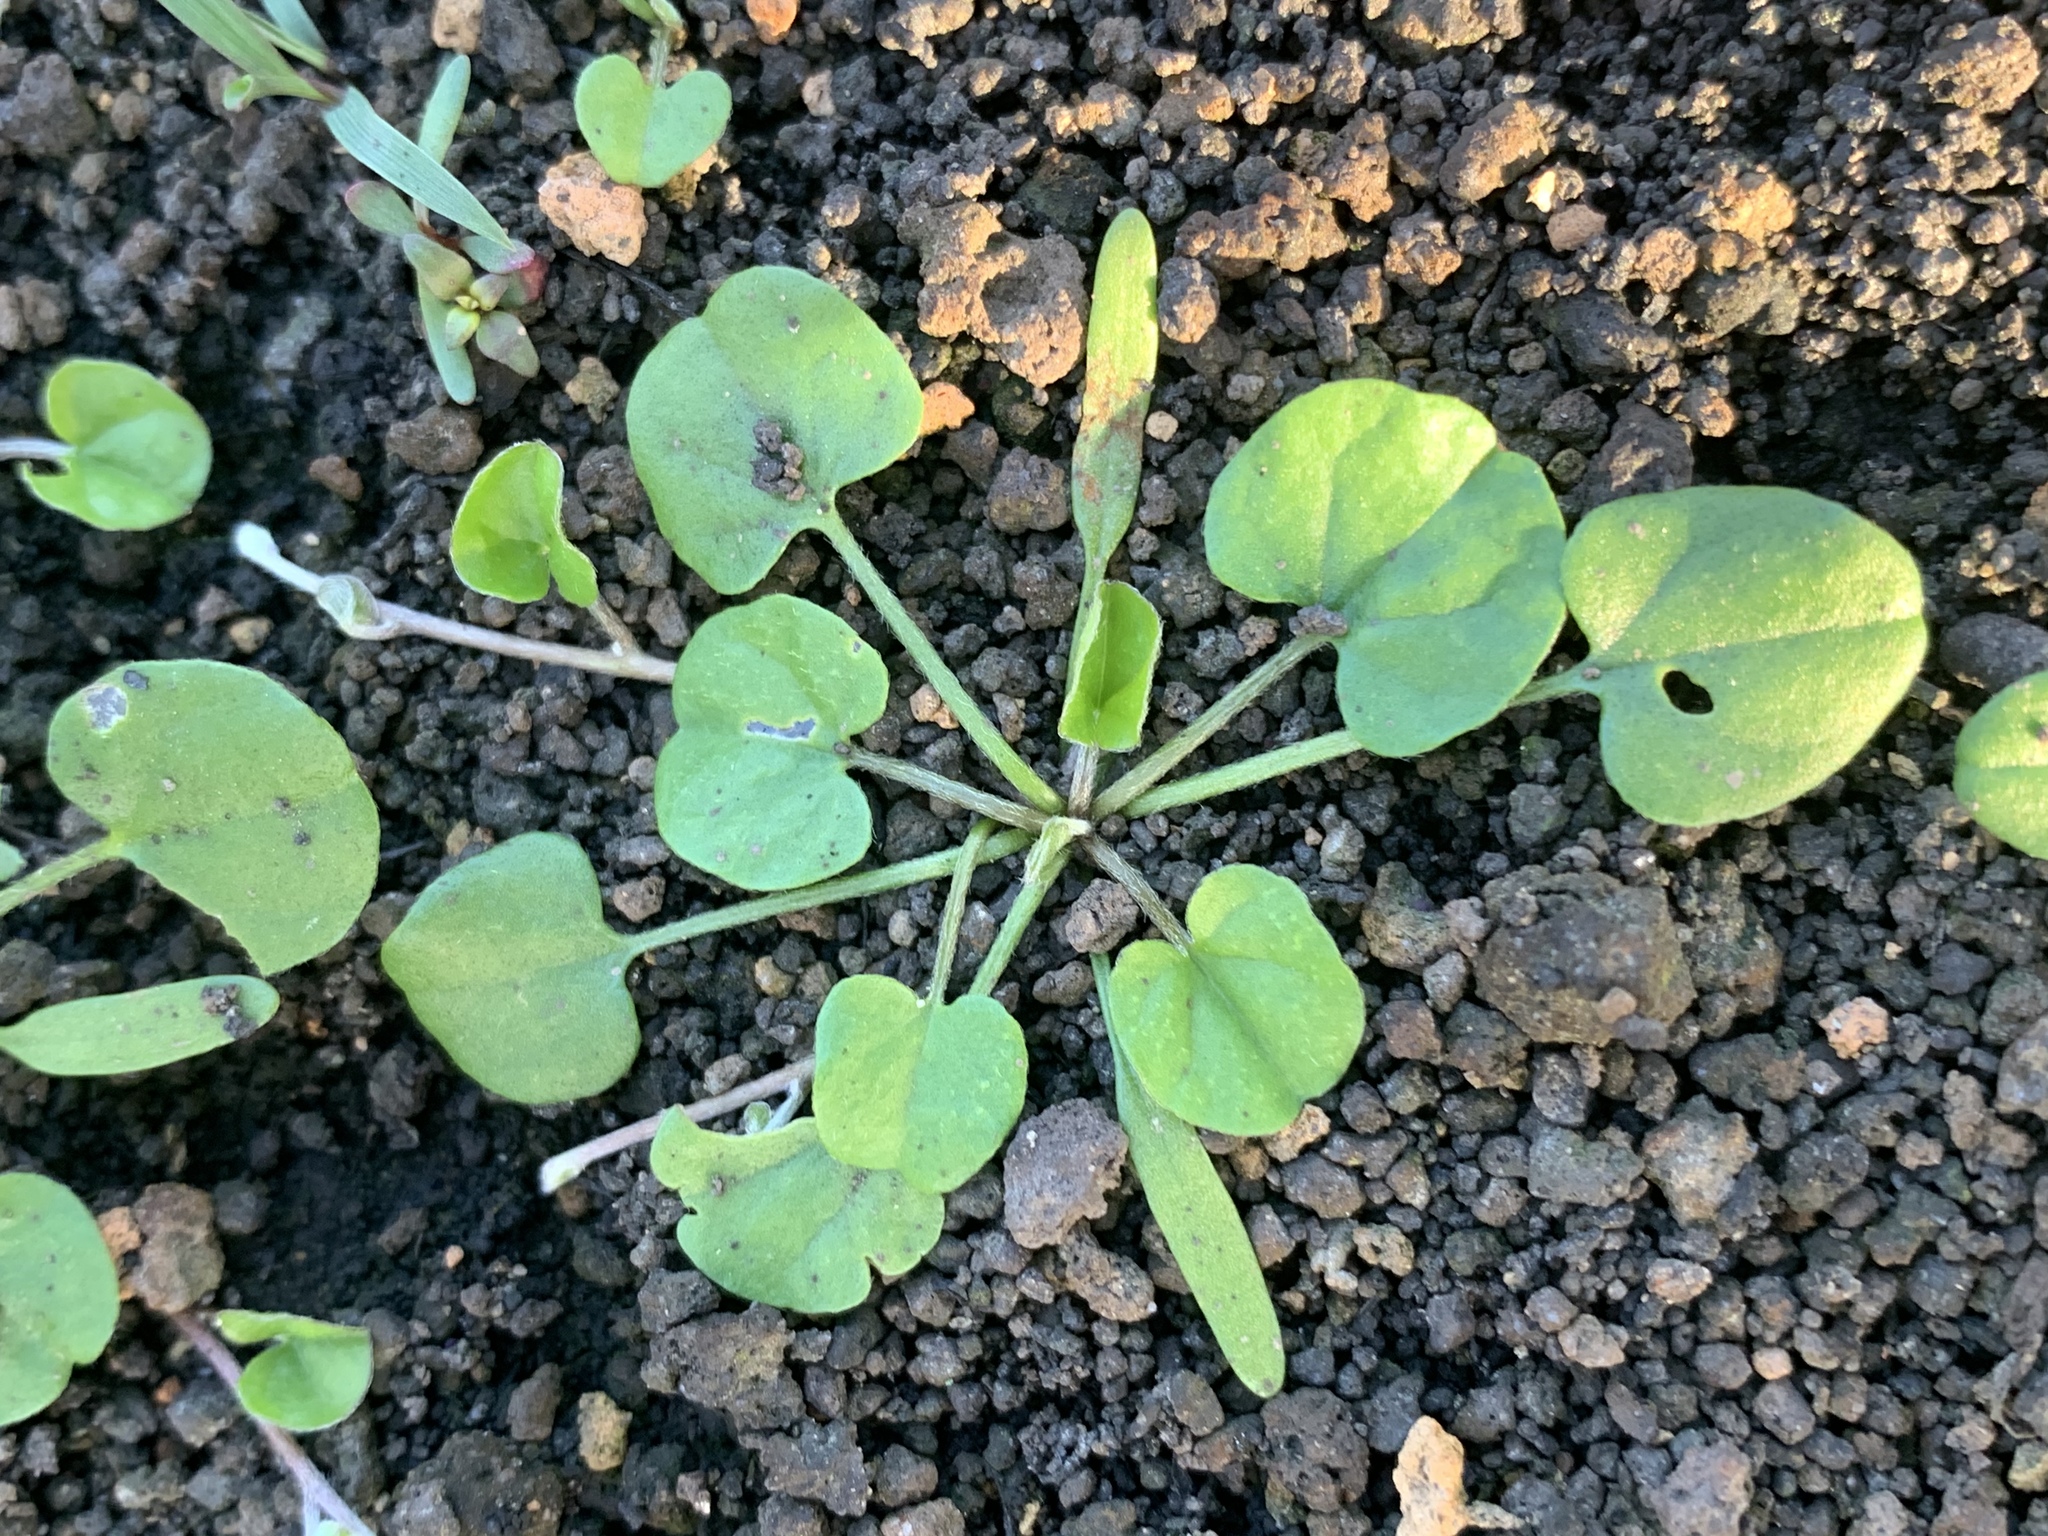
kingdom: Plantae
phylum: Tracheophyta
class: Magnoliopsida
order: Solanales
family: Convolvulaceae
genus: Dichondra
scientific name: Dichondra repens
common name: Kidneyweed
